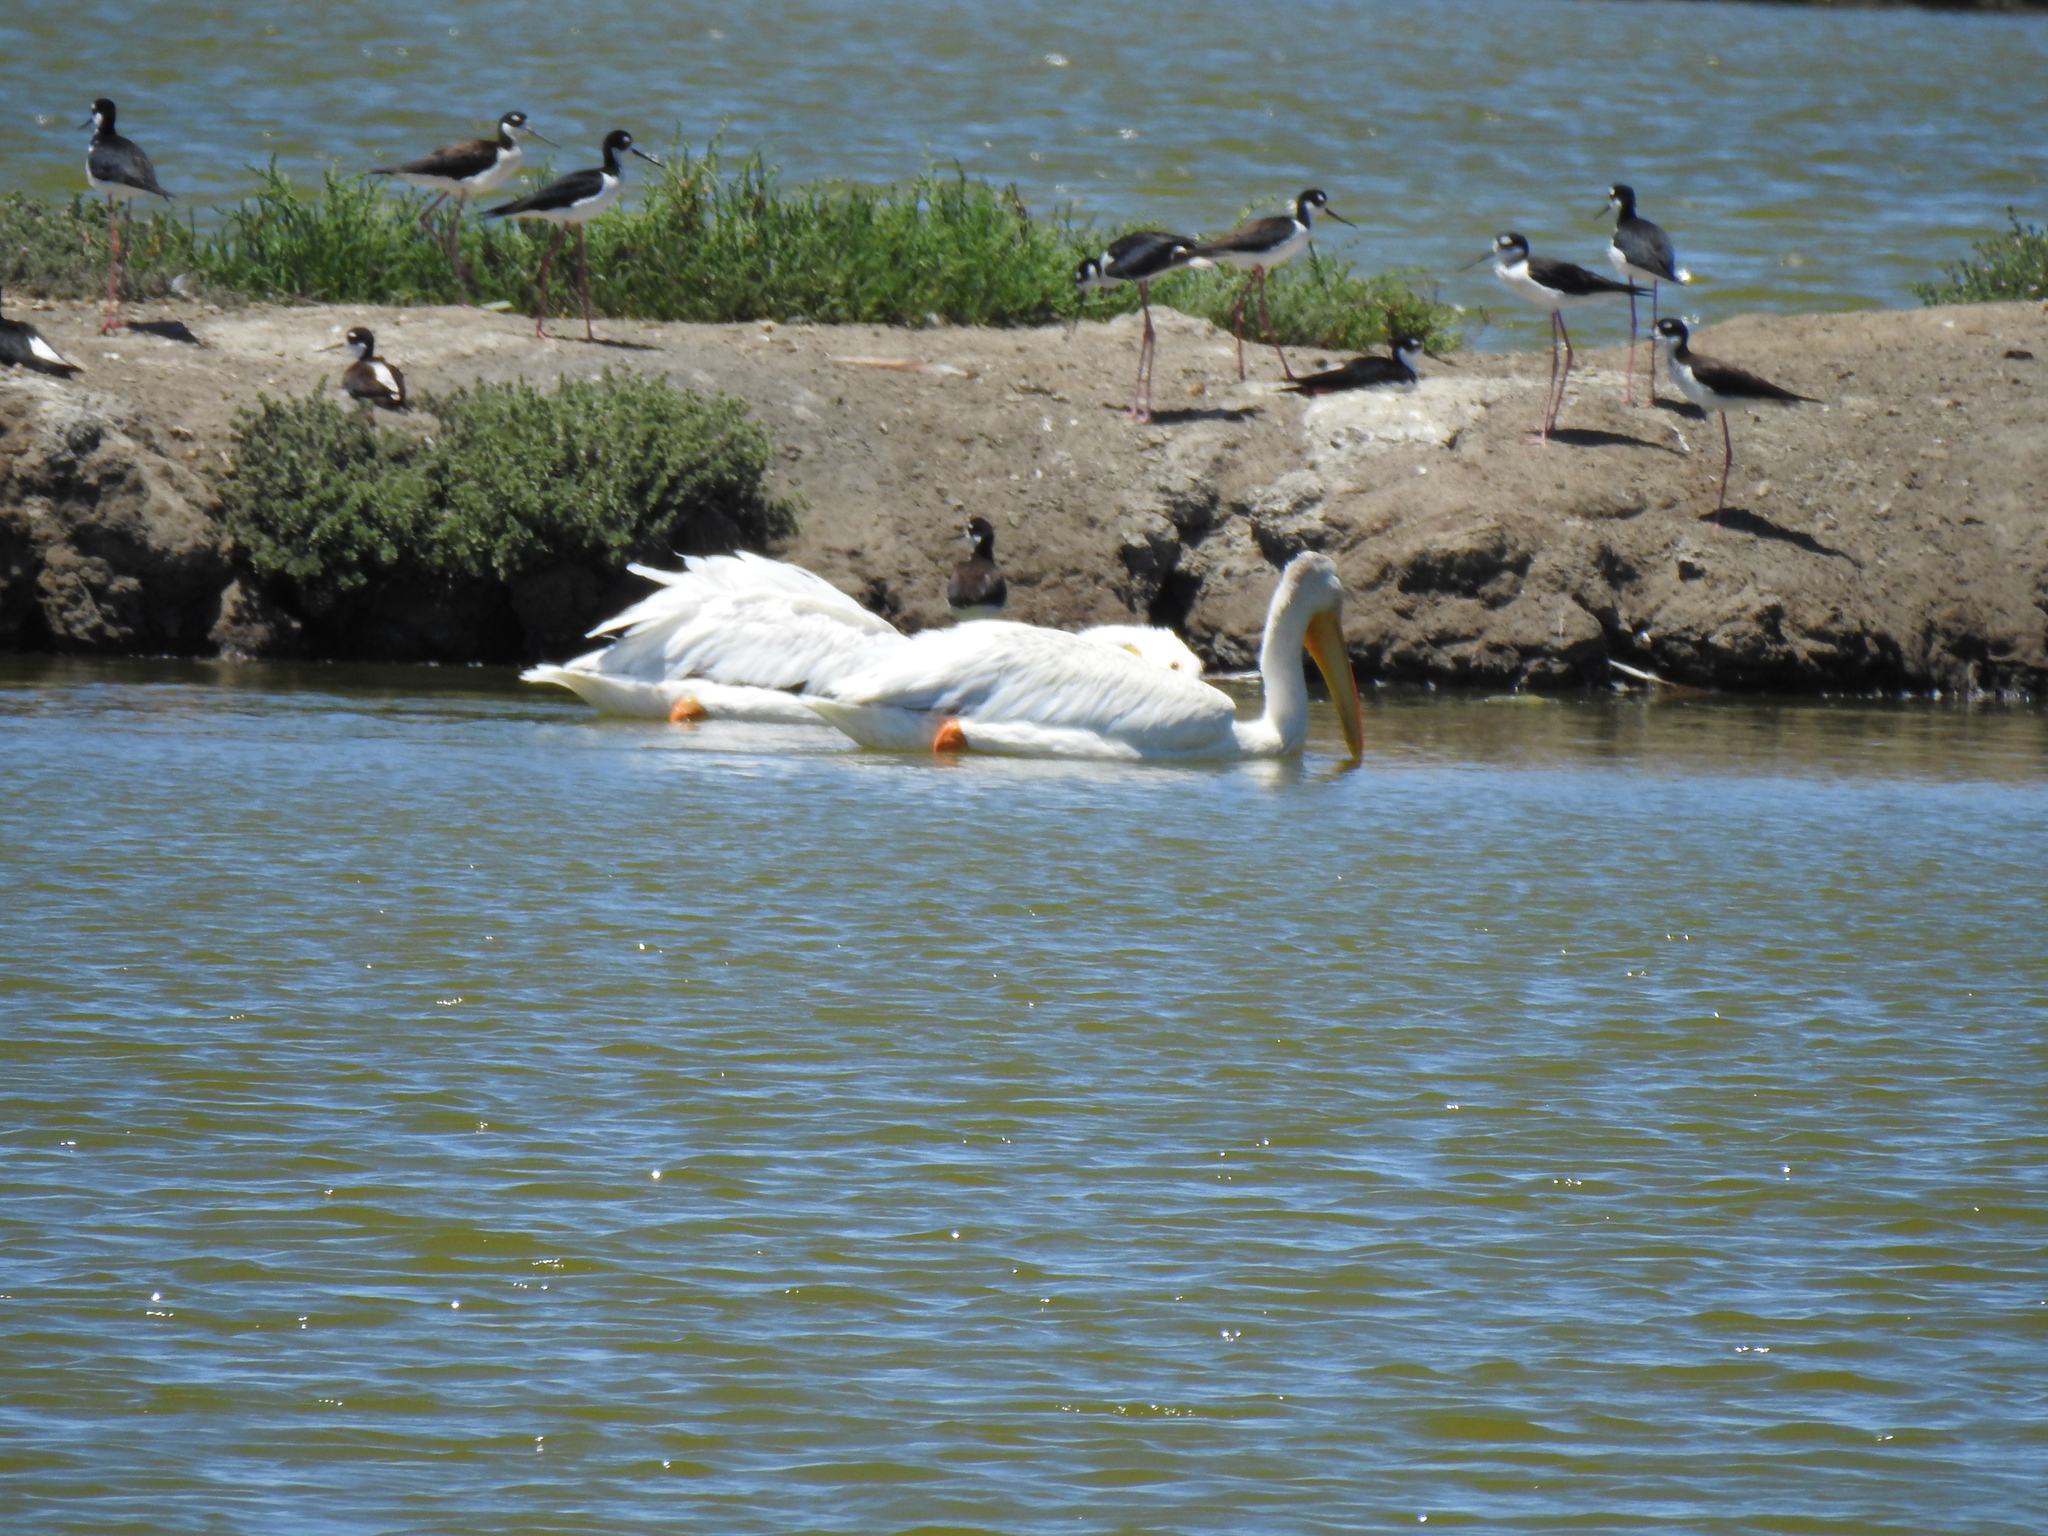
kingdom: Animalia
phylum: Chordata
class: Aves
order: Pelecaniformes
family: Pelecanidae
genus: Pelecanus
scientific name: Pelecanus erythrorhynchos
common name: American white pelican
